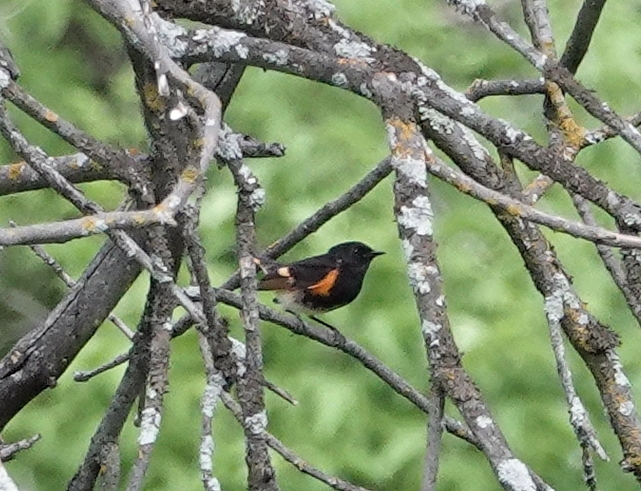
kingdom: Animalia
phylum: Chordata
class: Aves
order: Passeriformes
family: Parulidae
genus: Setophaga
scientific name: Setophaga ruticilla
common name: American redstart
